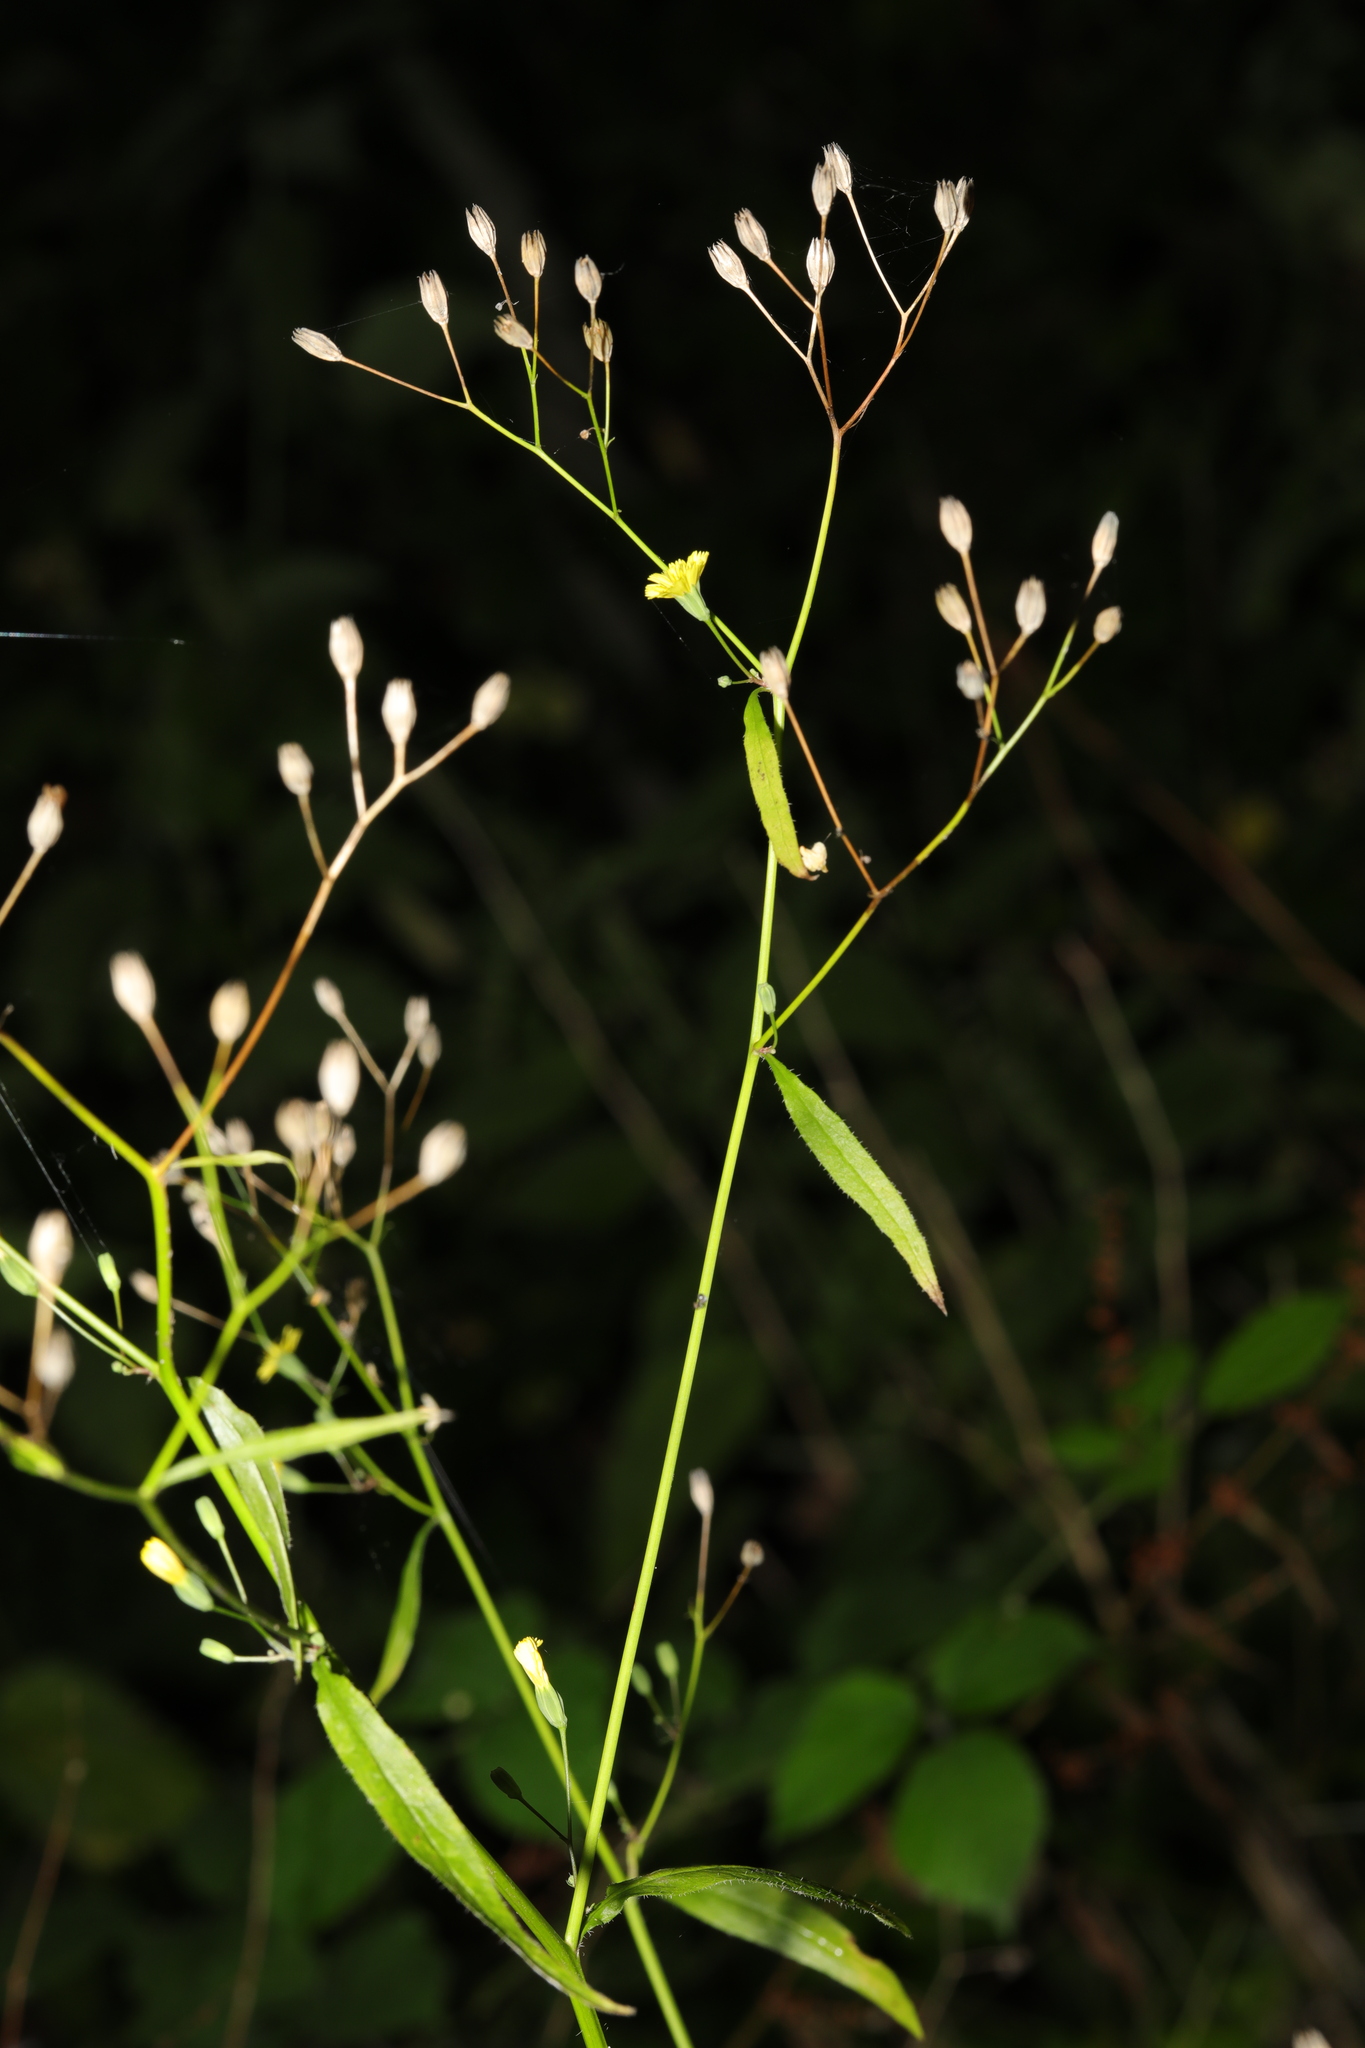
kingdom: Plantae
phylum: Tracheophyta
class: Magnoliopsida
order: Asterales
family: Asteraceae
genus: Lapsana
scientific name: Lapsana communis
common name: Nipplewort
